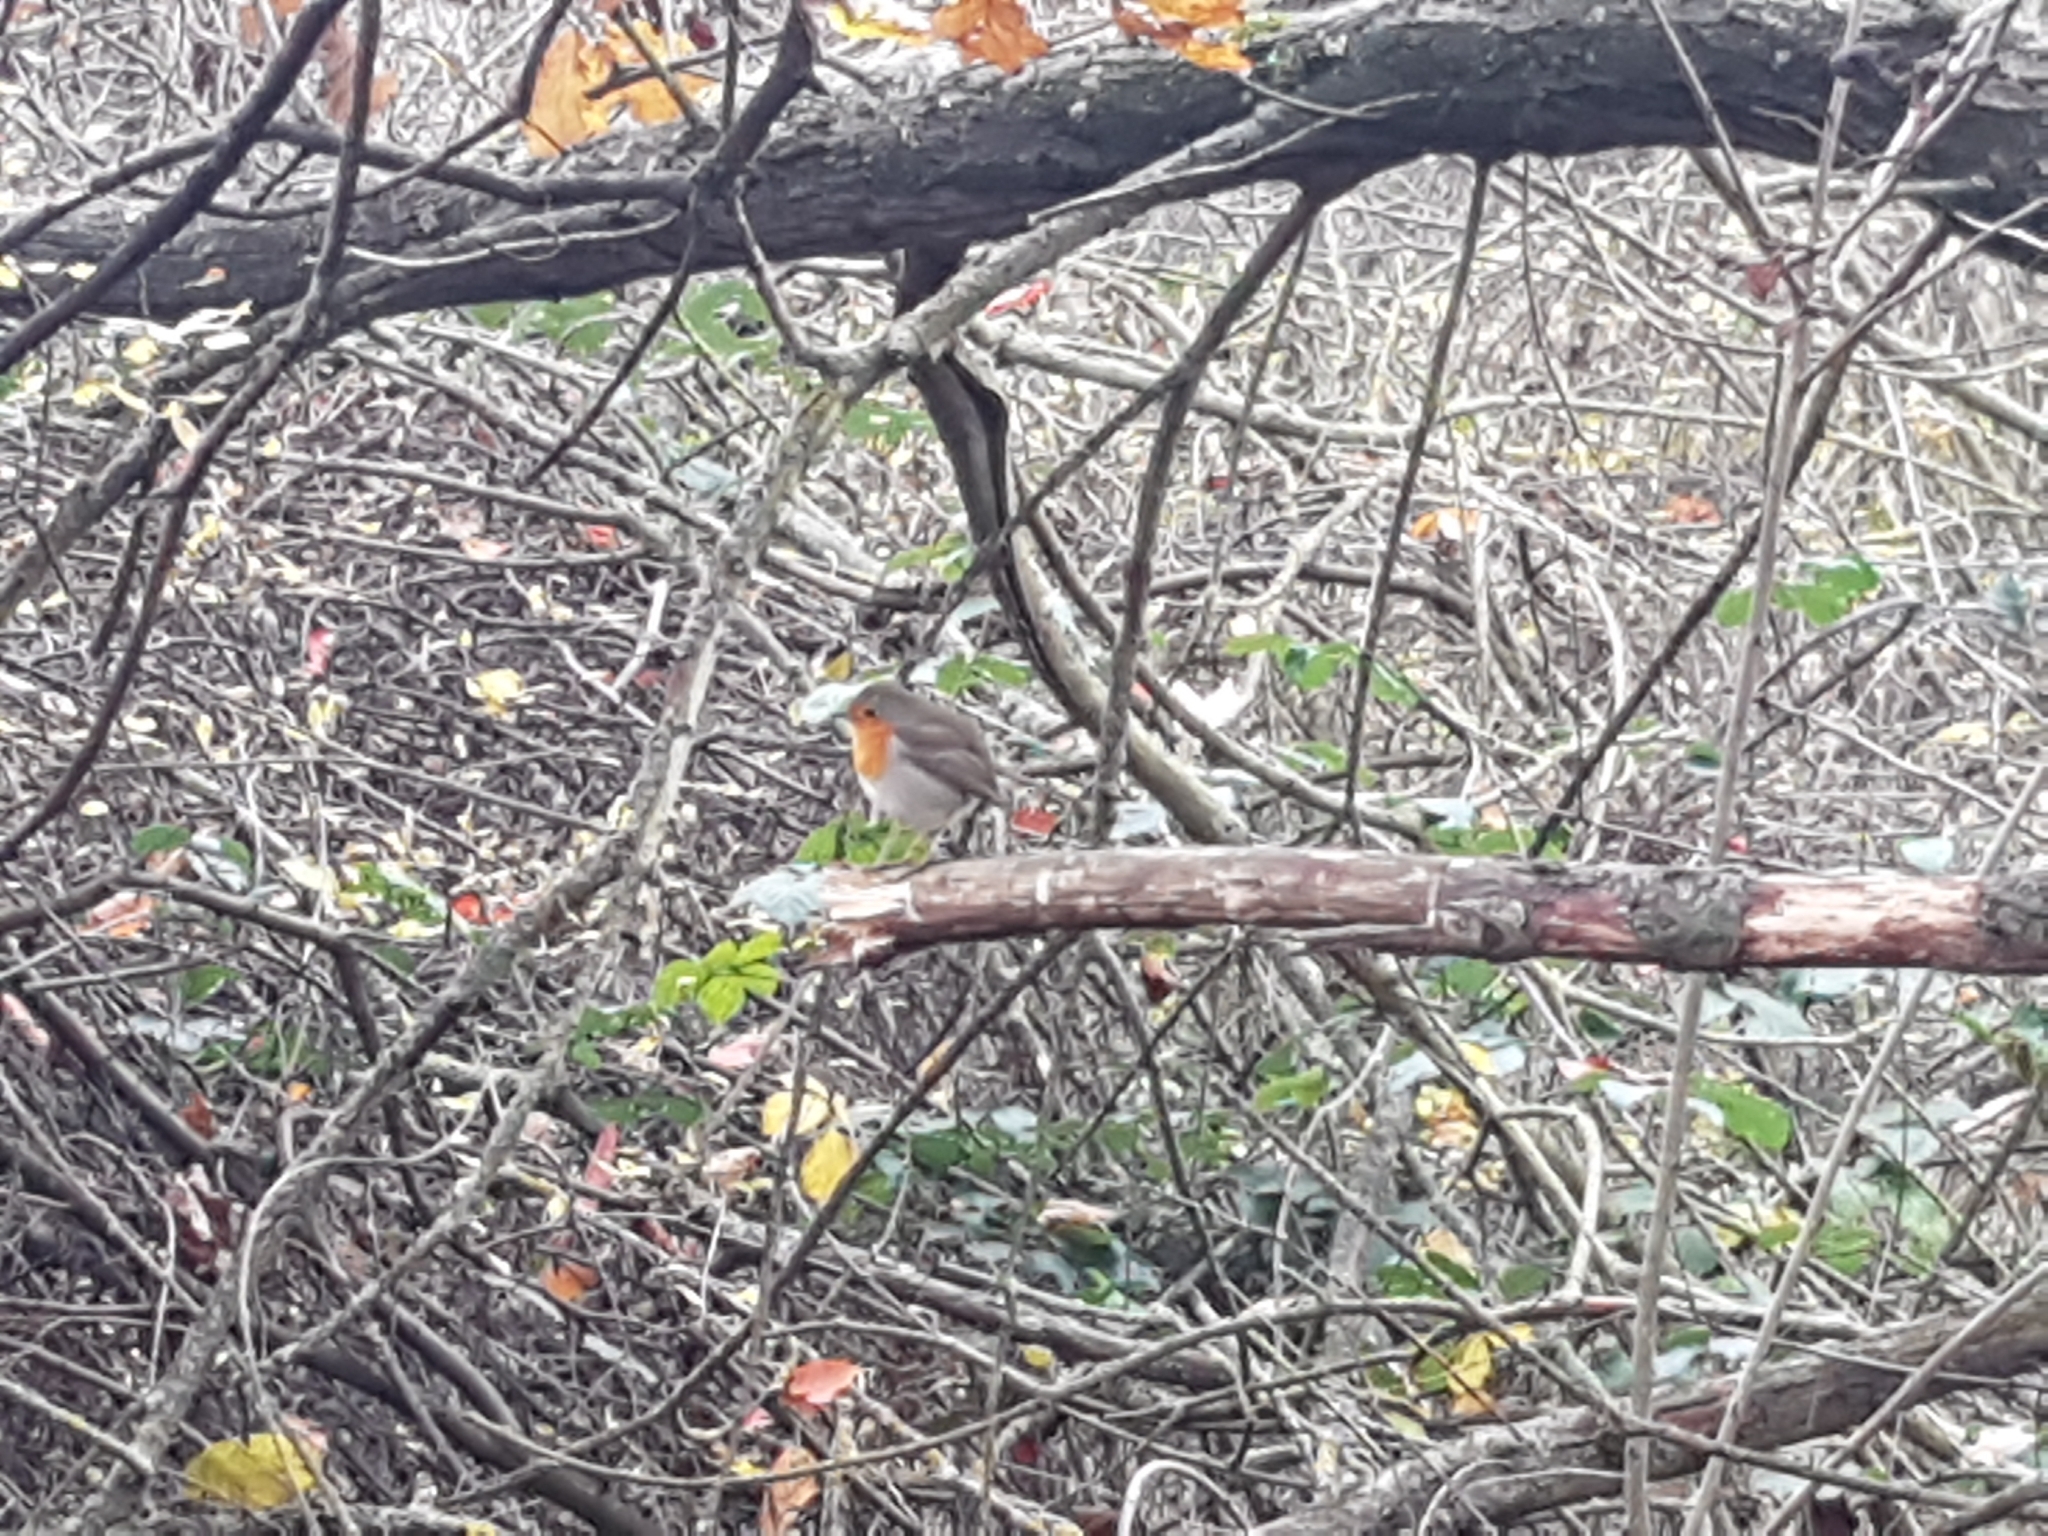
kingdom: Animalia
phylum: Chordata
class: Aves
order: Passeriformes
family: Muscicapidae
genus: Erithacus
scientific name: Erithacus rubecula
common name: European robin
